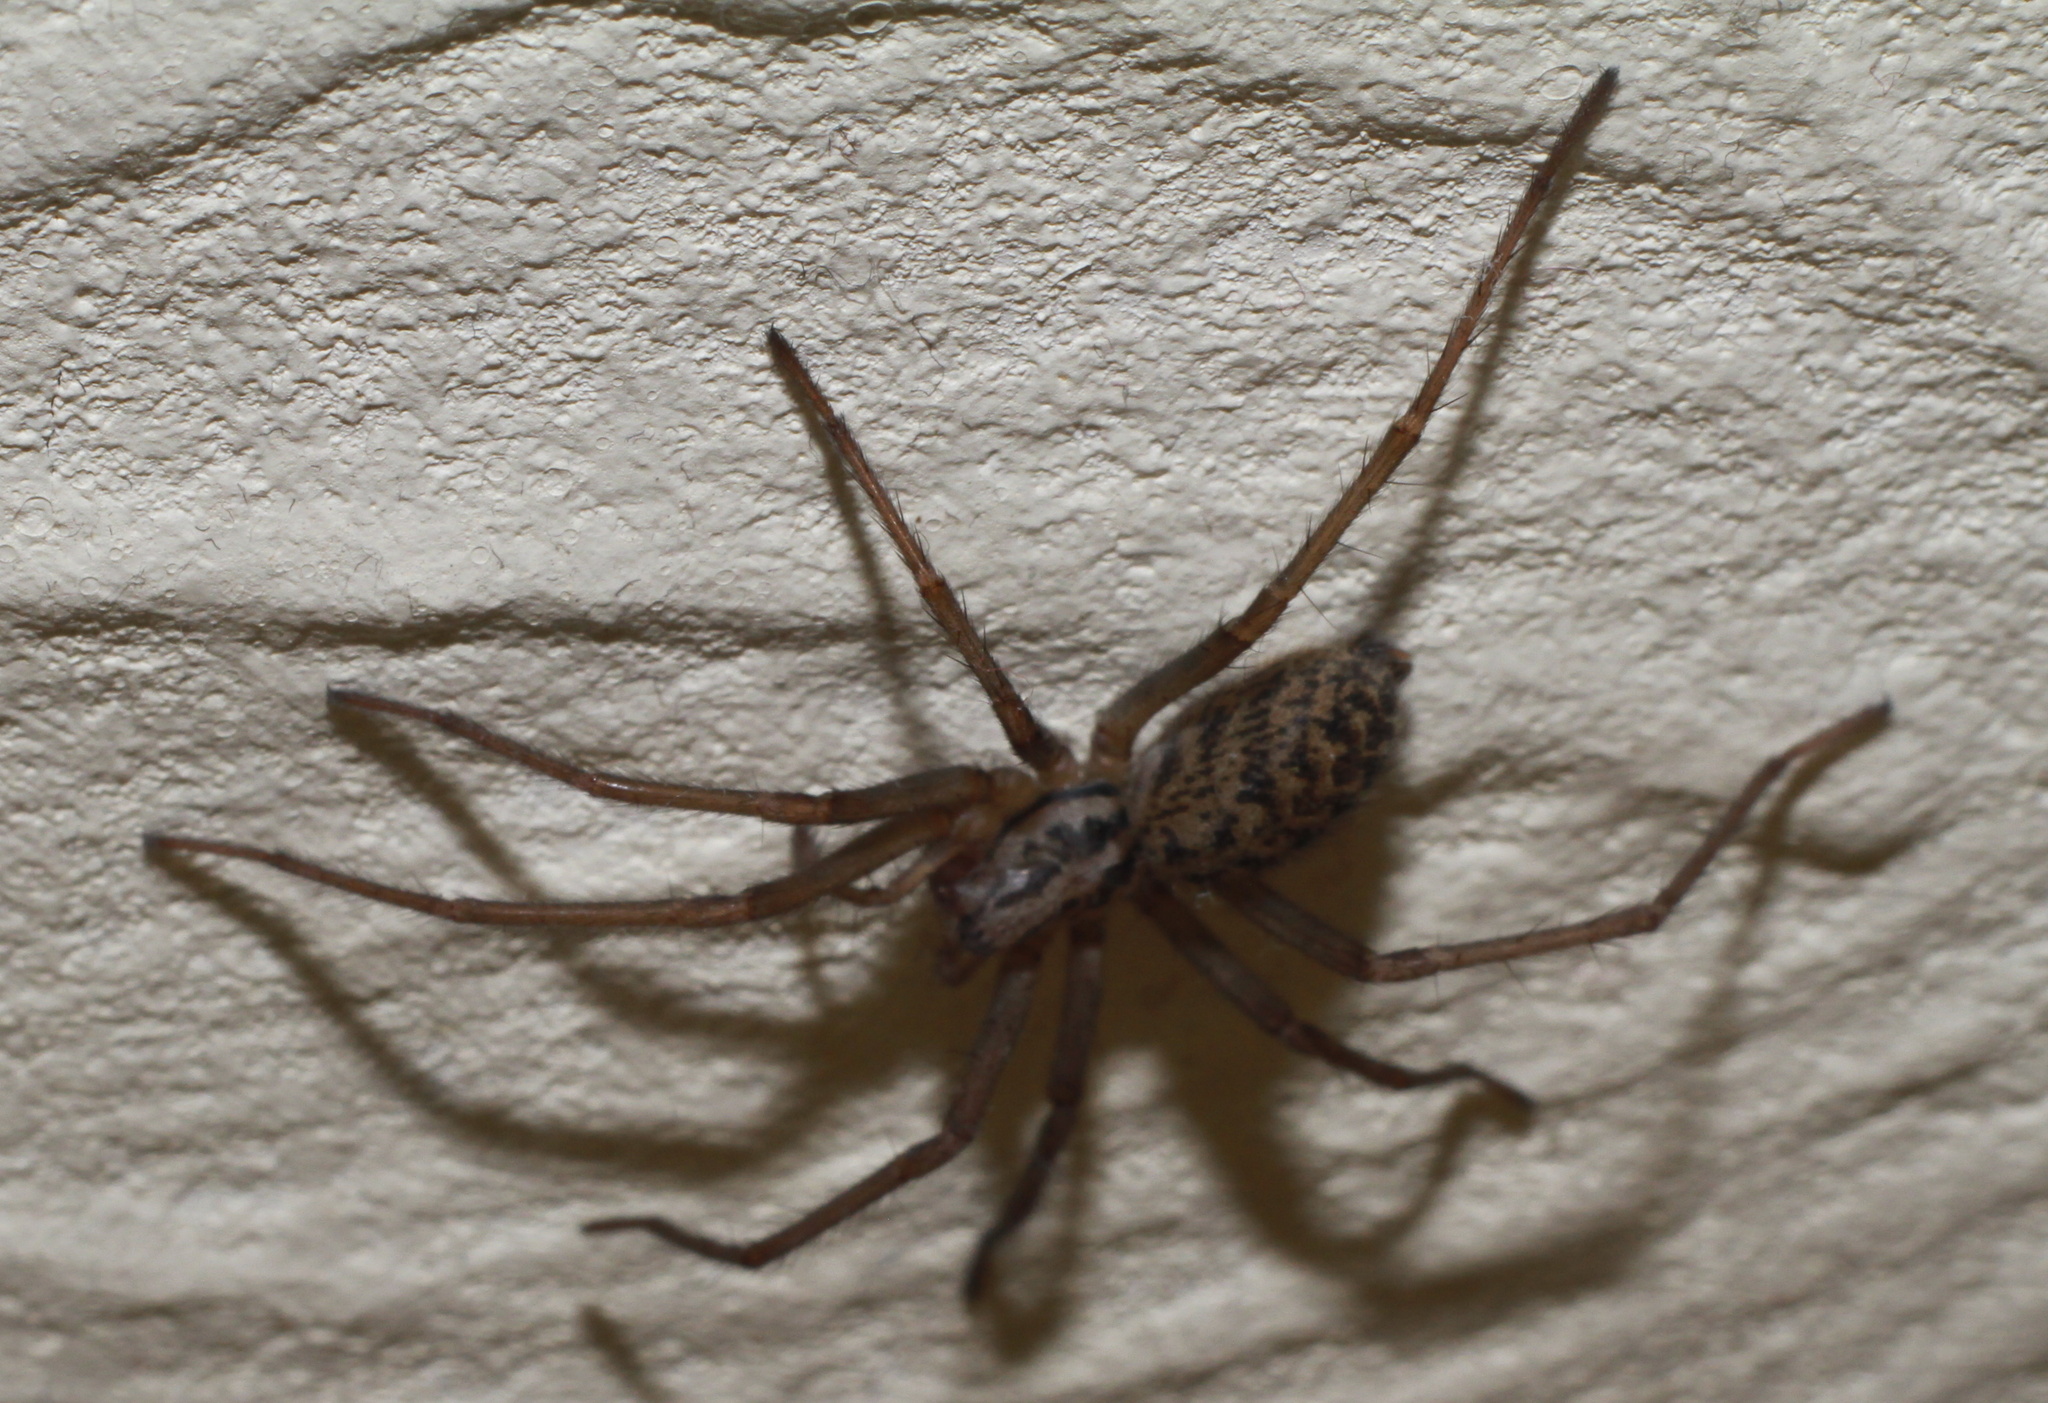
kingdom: Animalia
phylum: Arthropoda
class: Arachnida
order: Araneae
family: Agelenidae
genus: Eratigena
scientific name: Eratigena
